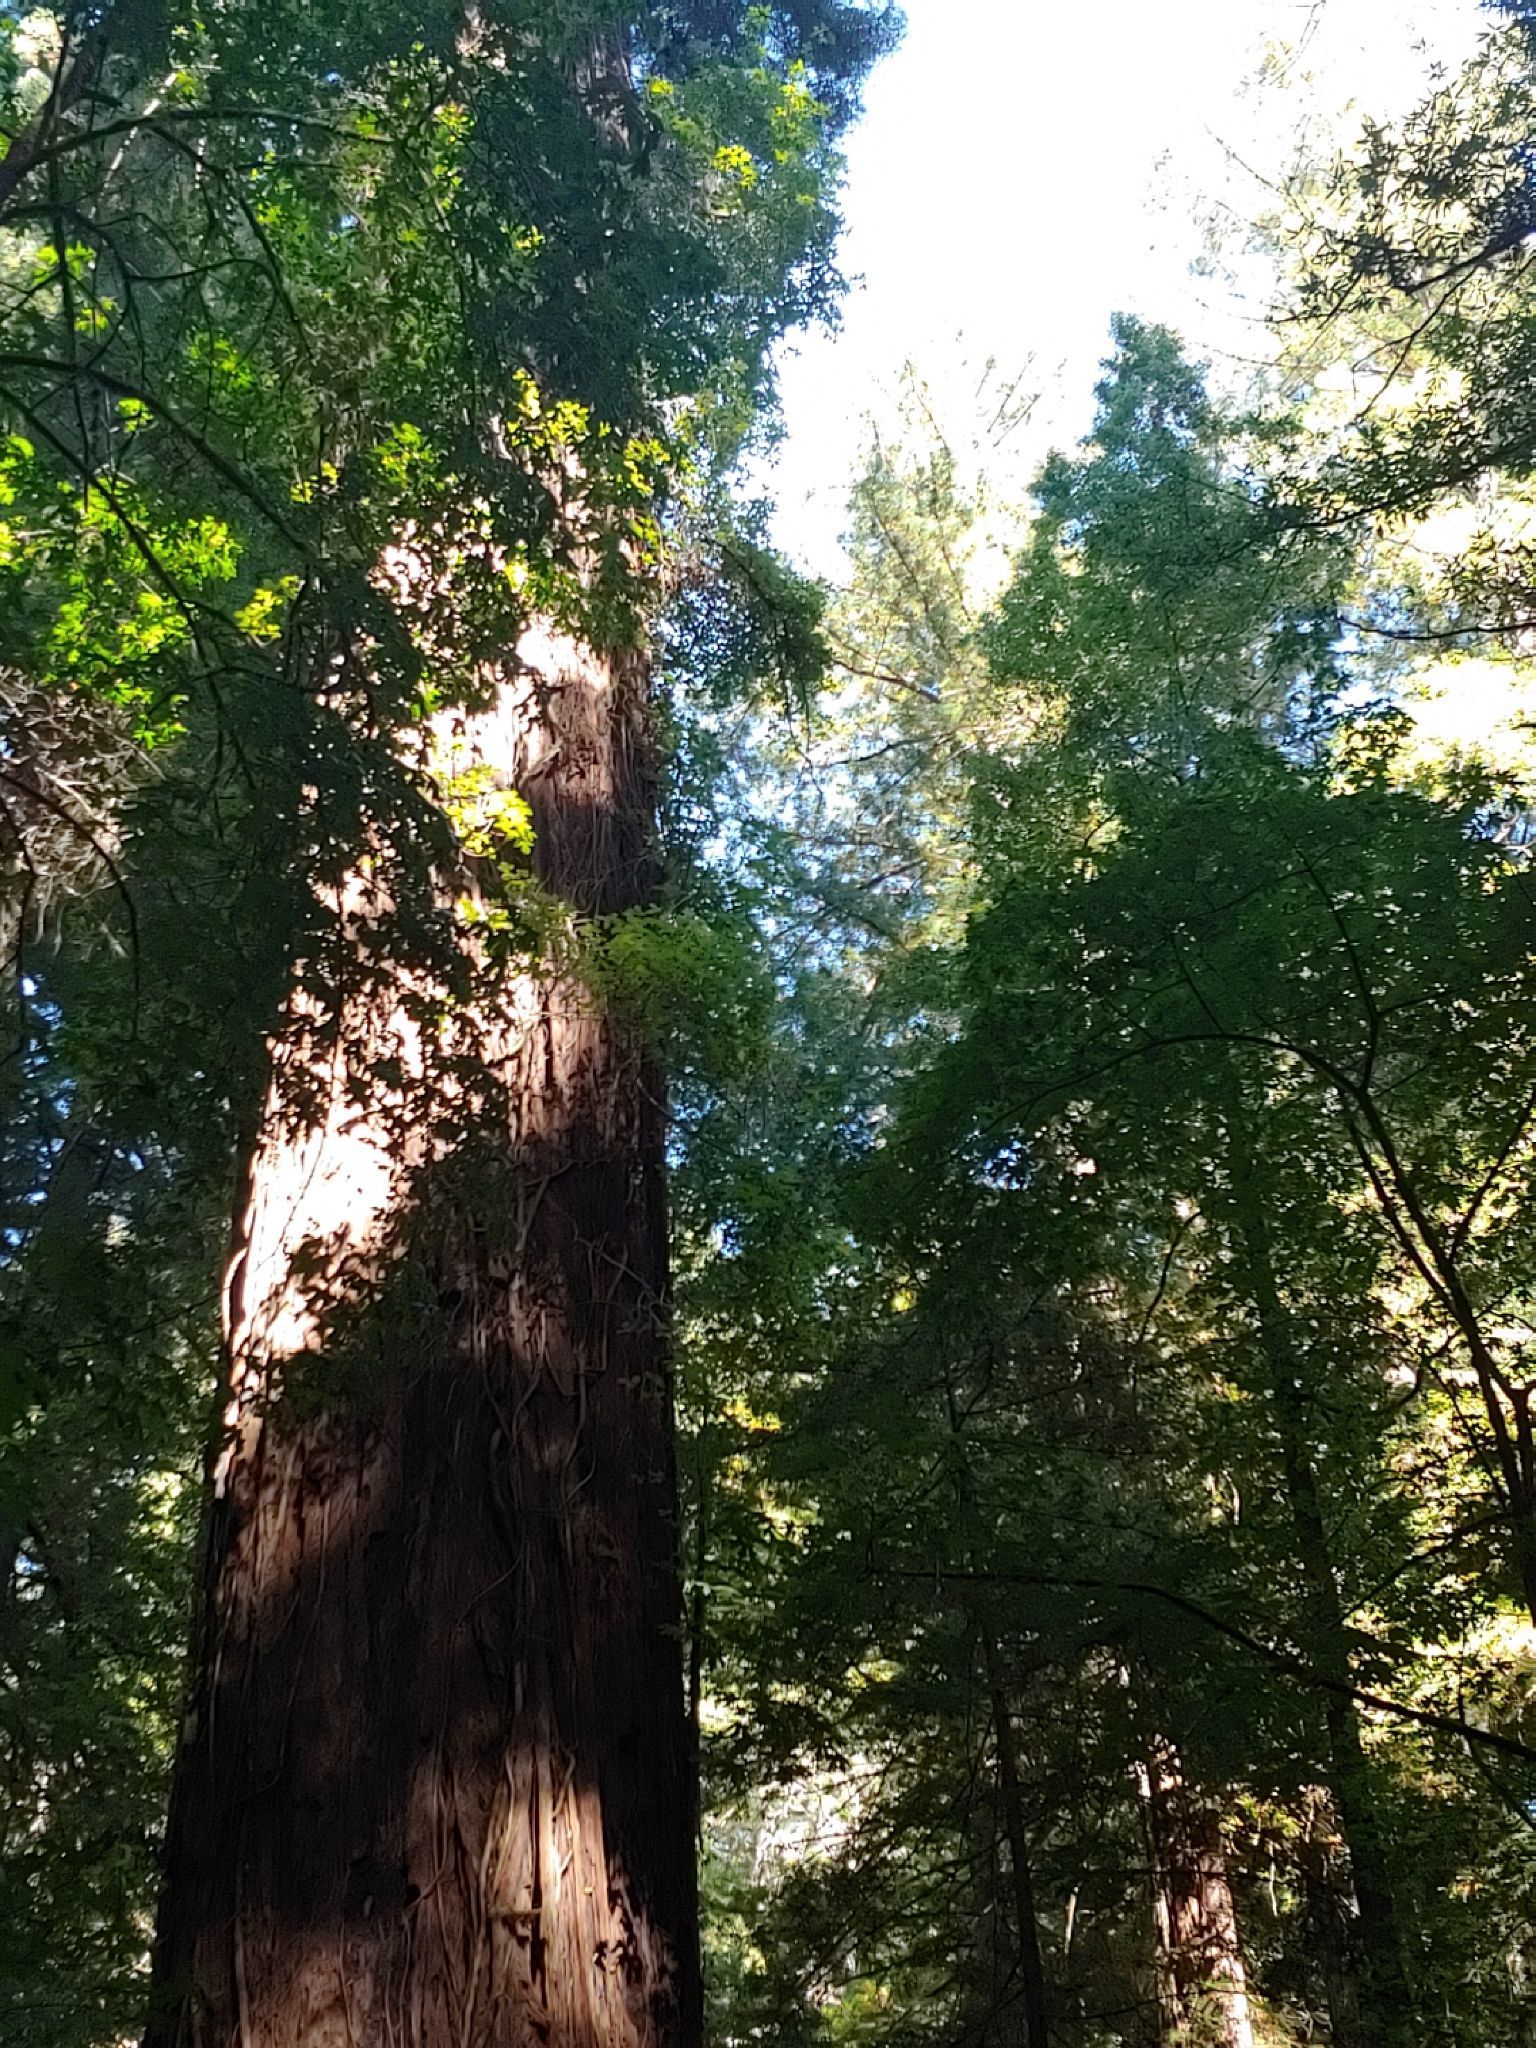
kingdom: Plantae
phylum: Tracheophyta
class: Pinopsida
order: Pinales
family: Cupressaceae
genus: Sequoia
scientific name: Sequoia sempervirens
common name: Coast redwood
